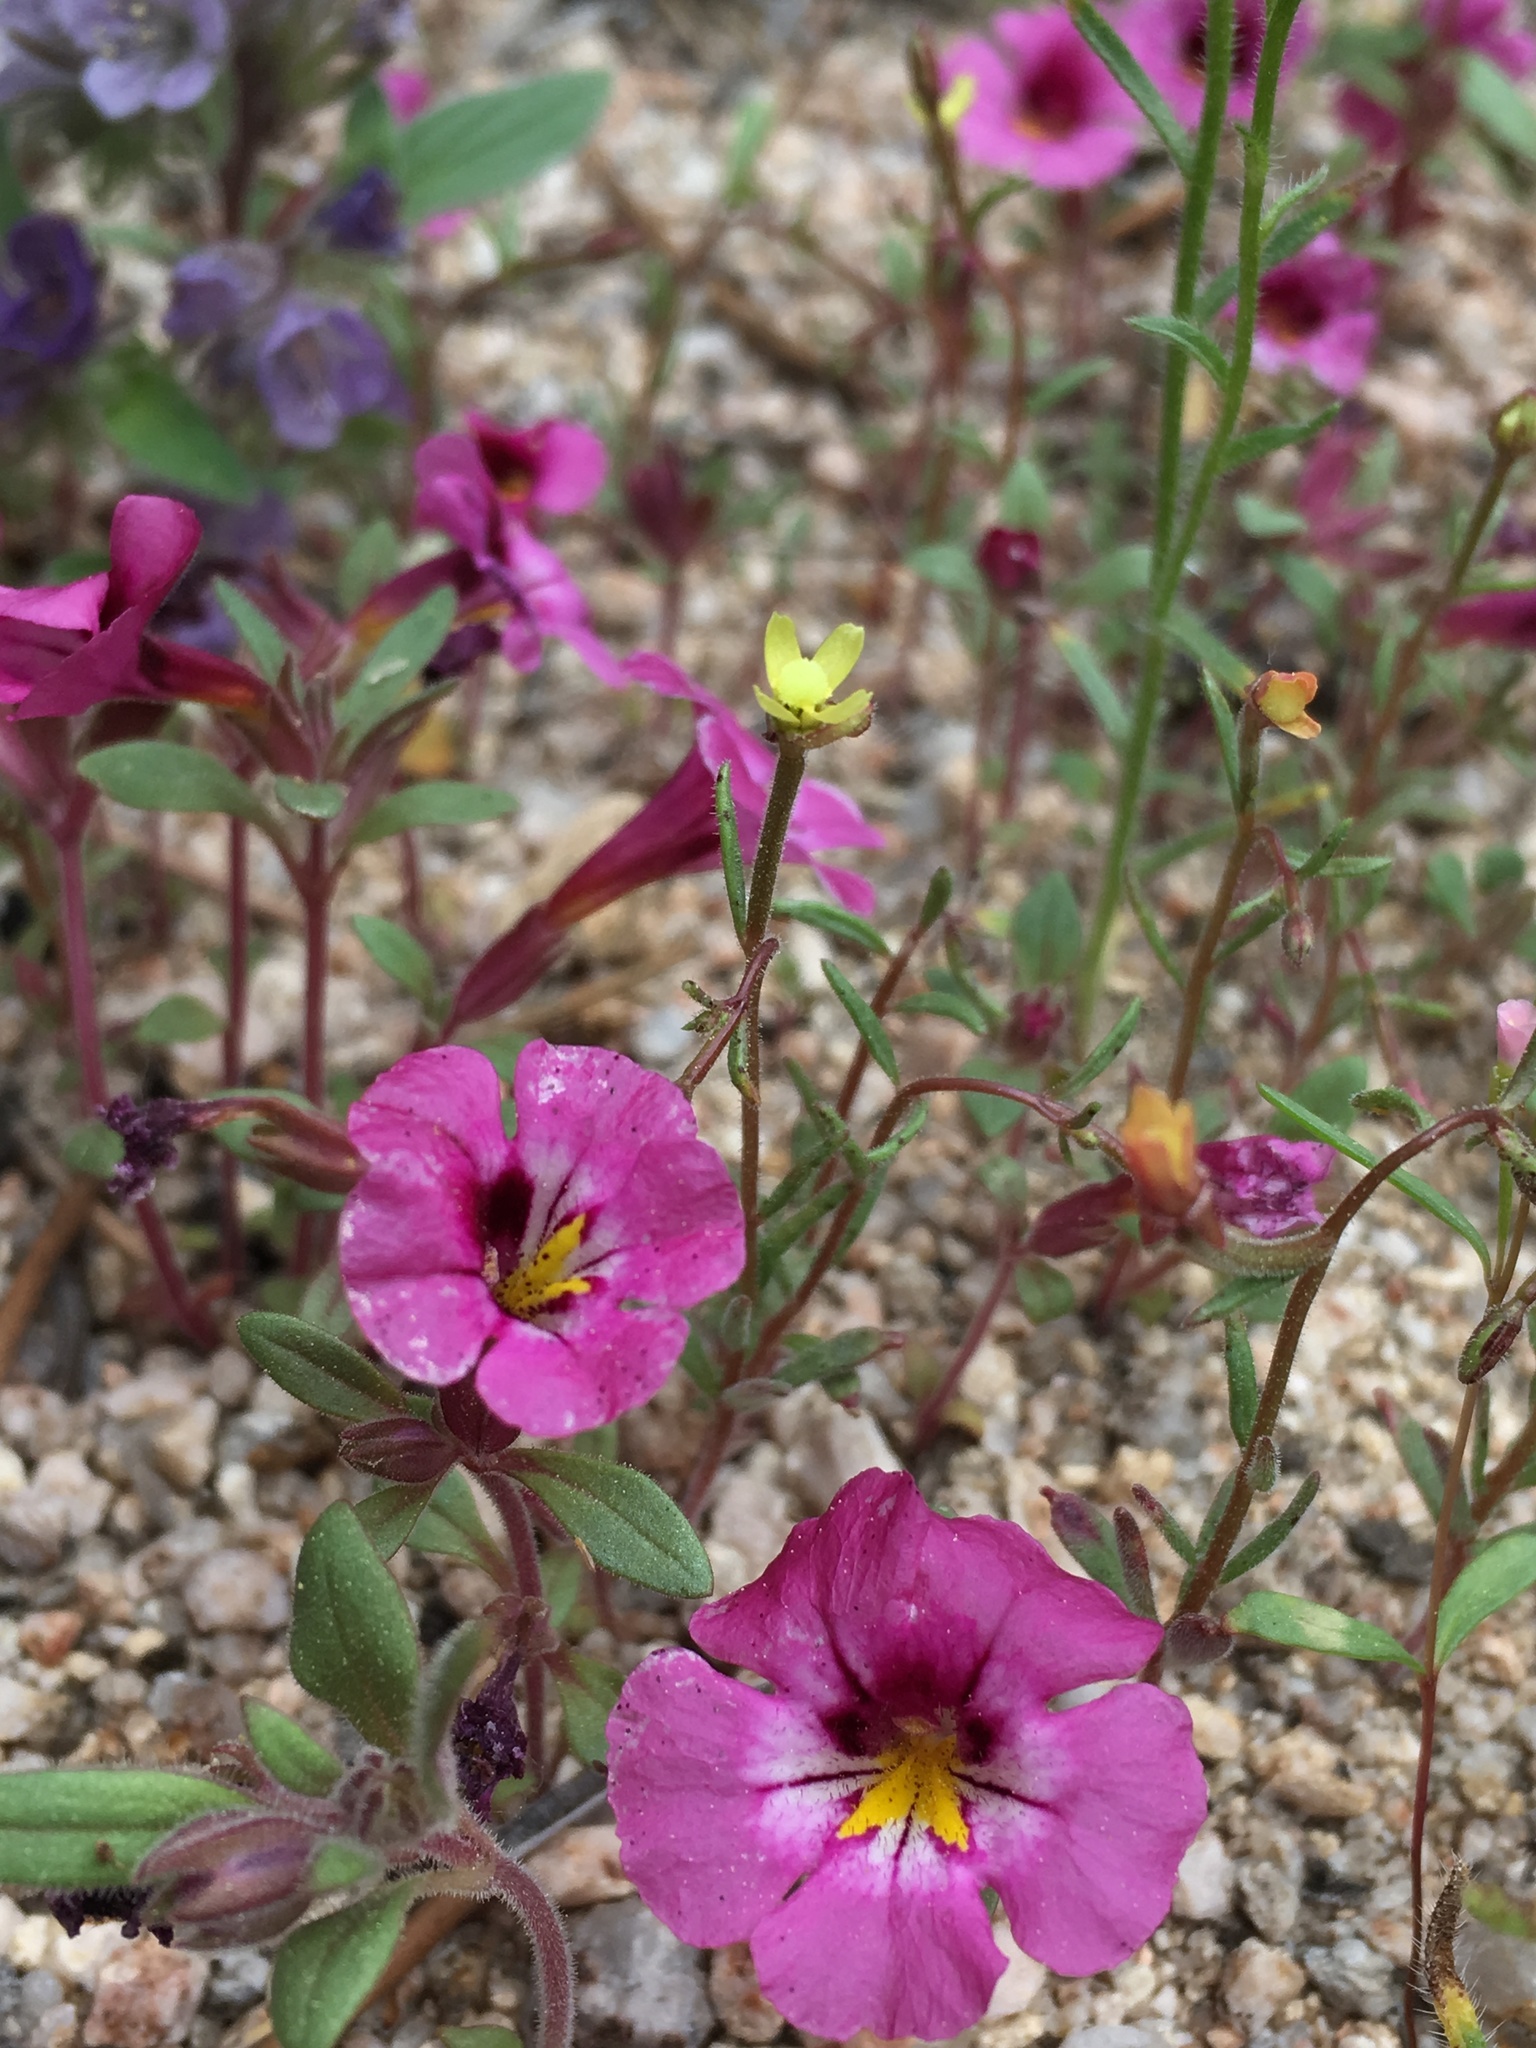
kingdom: Plantae
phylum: Tracheophyta
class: Magnoliopsida
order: Myrtales
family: Onagraceae
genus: Camissonia
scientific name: Camissonia pusilla
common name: Obscure camissonia
